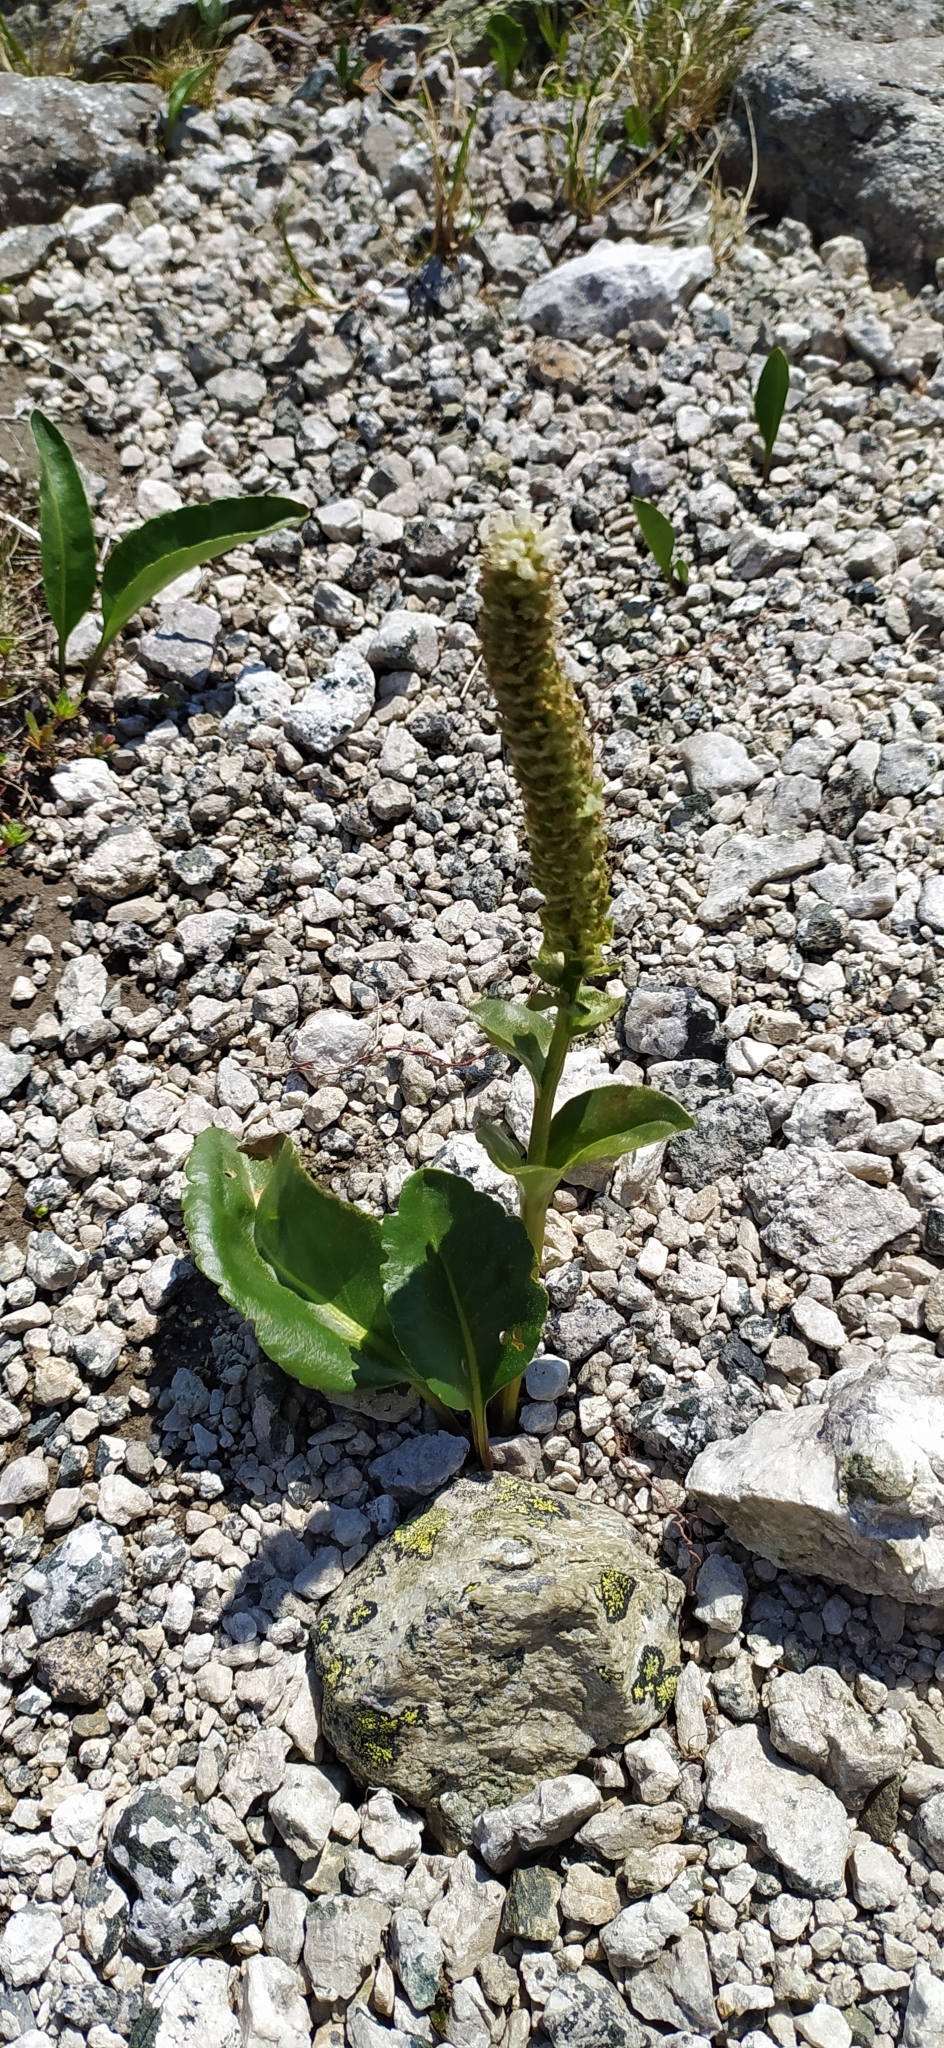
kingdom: Plantae
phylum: Tracheophyta
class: Magnoliopsida
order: Lamiales
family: Plantaginaceae
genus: Lagotis
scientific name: Lagotis uralensis
